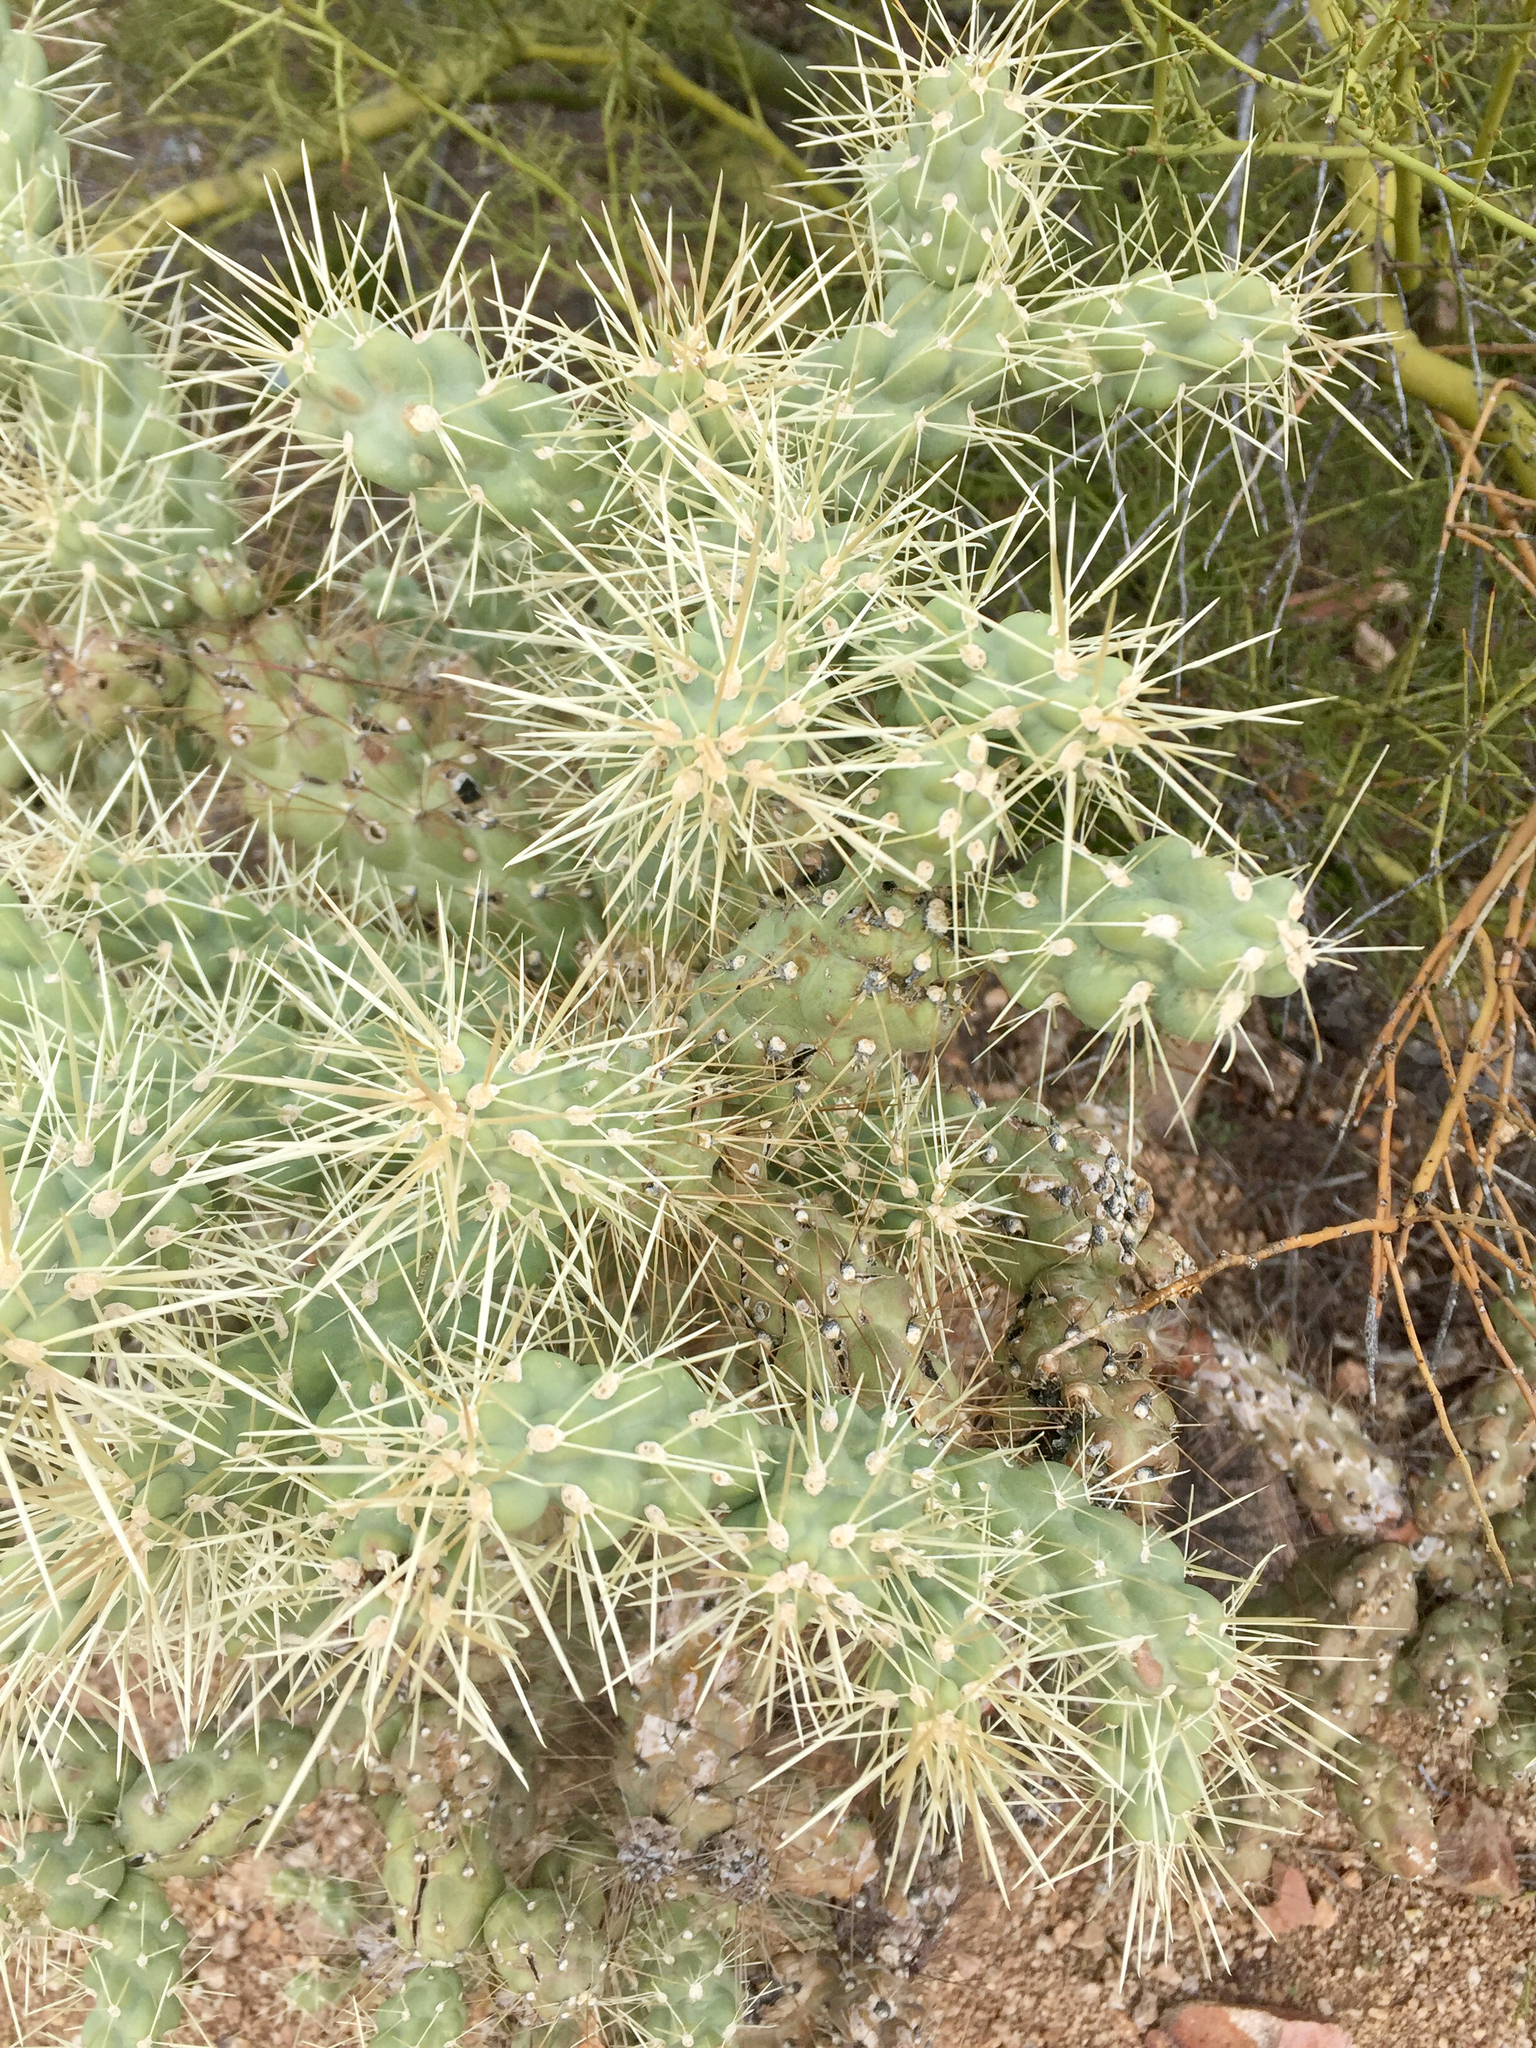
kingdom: Plantae
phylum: Tracheophyta
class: Magnoliopsida
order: Caryophyllales
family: Cactaceae
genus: Cylindropuntia
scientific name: Cylindropuntia fulgida
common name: Jumping cholla
